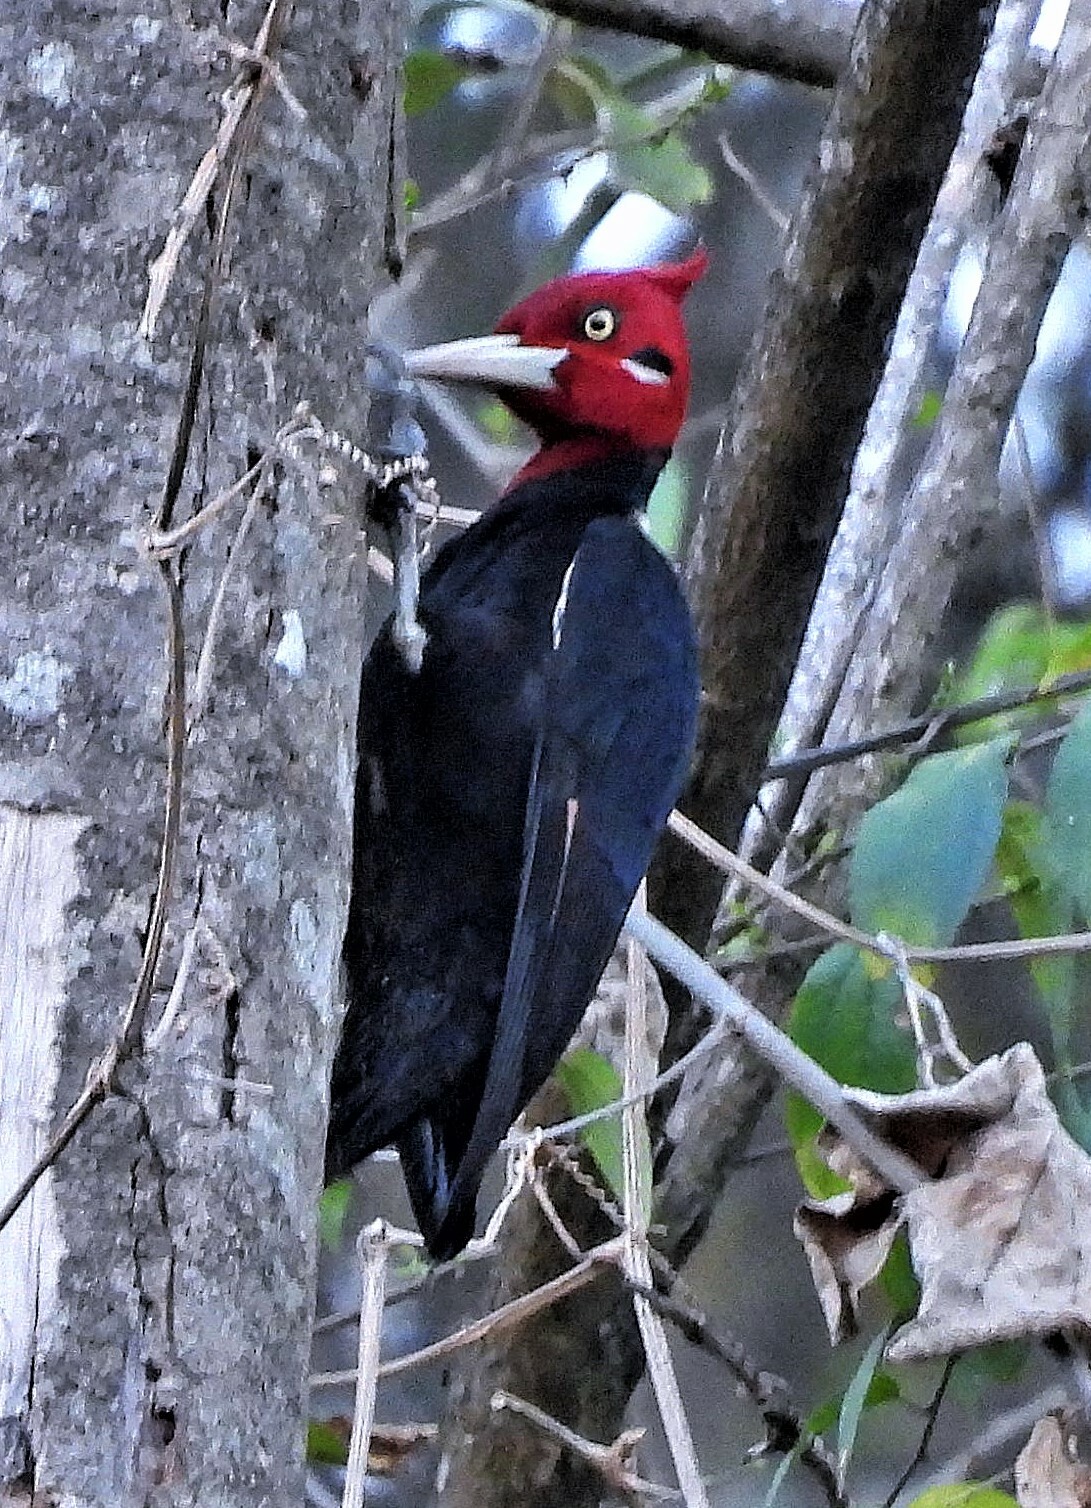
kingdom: Animalia
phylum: Chordata
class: Aves
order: Piciformes
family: Picidae
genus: Campephilus
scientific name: Campephilus leucopogon
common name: Cream-backed woodpecker
